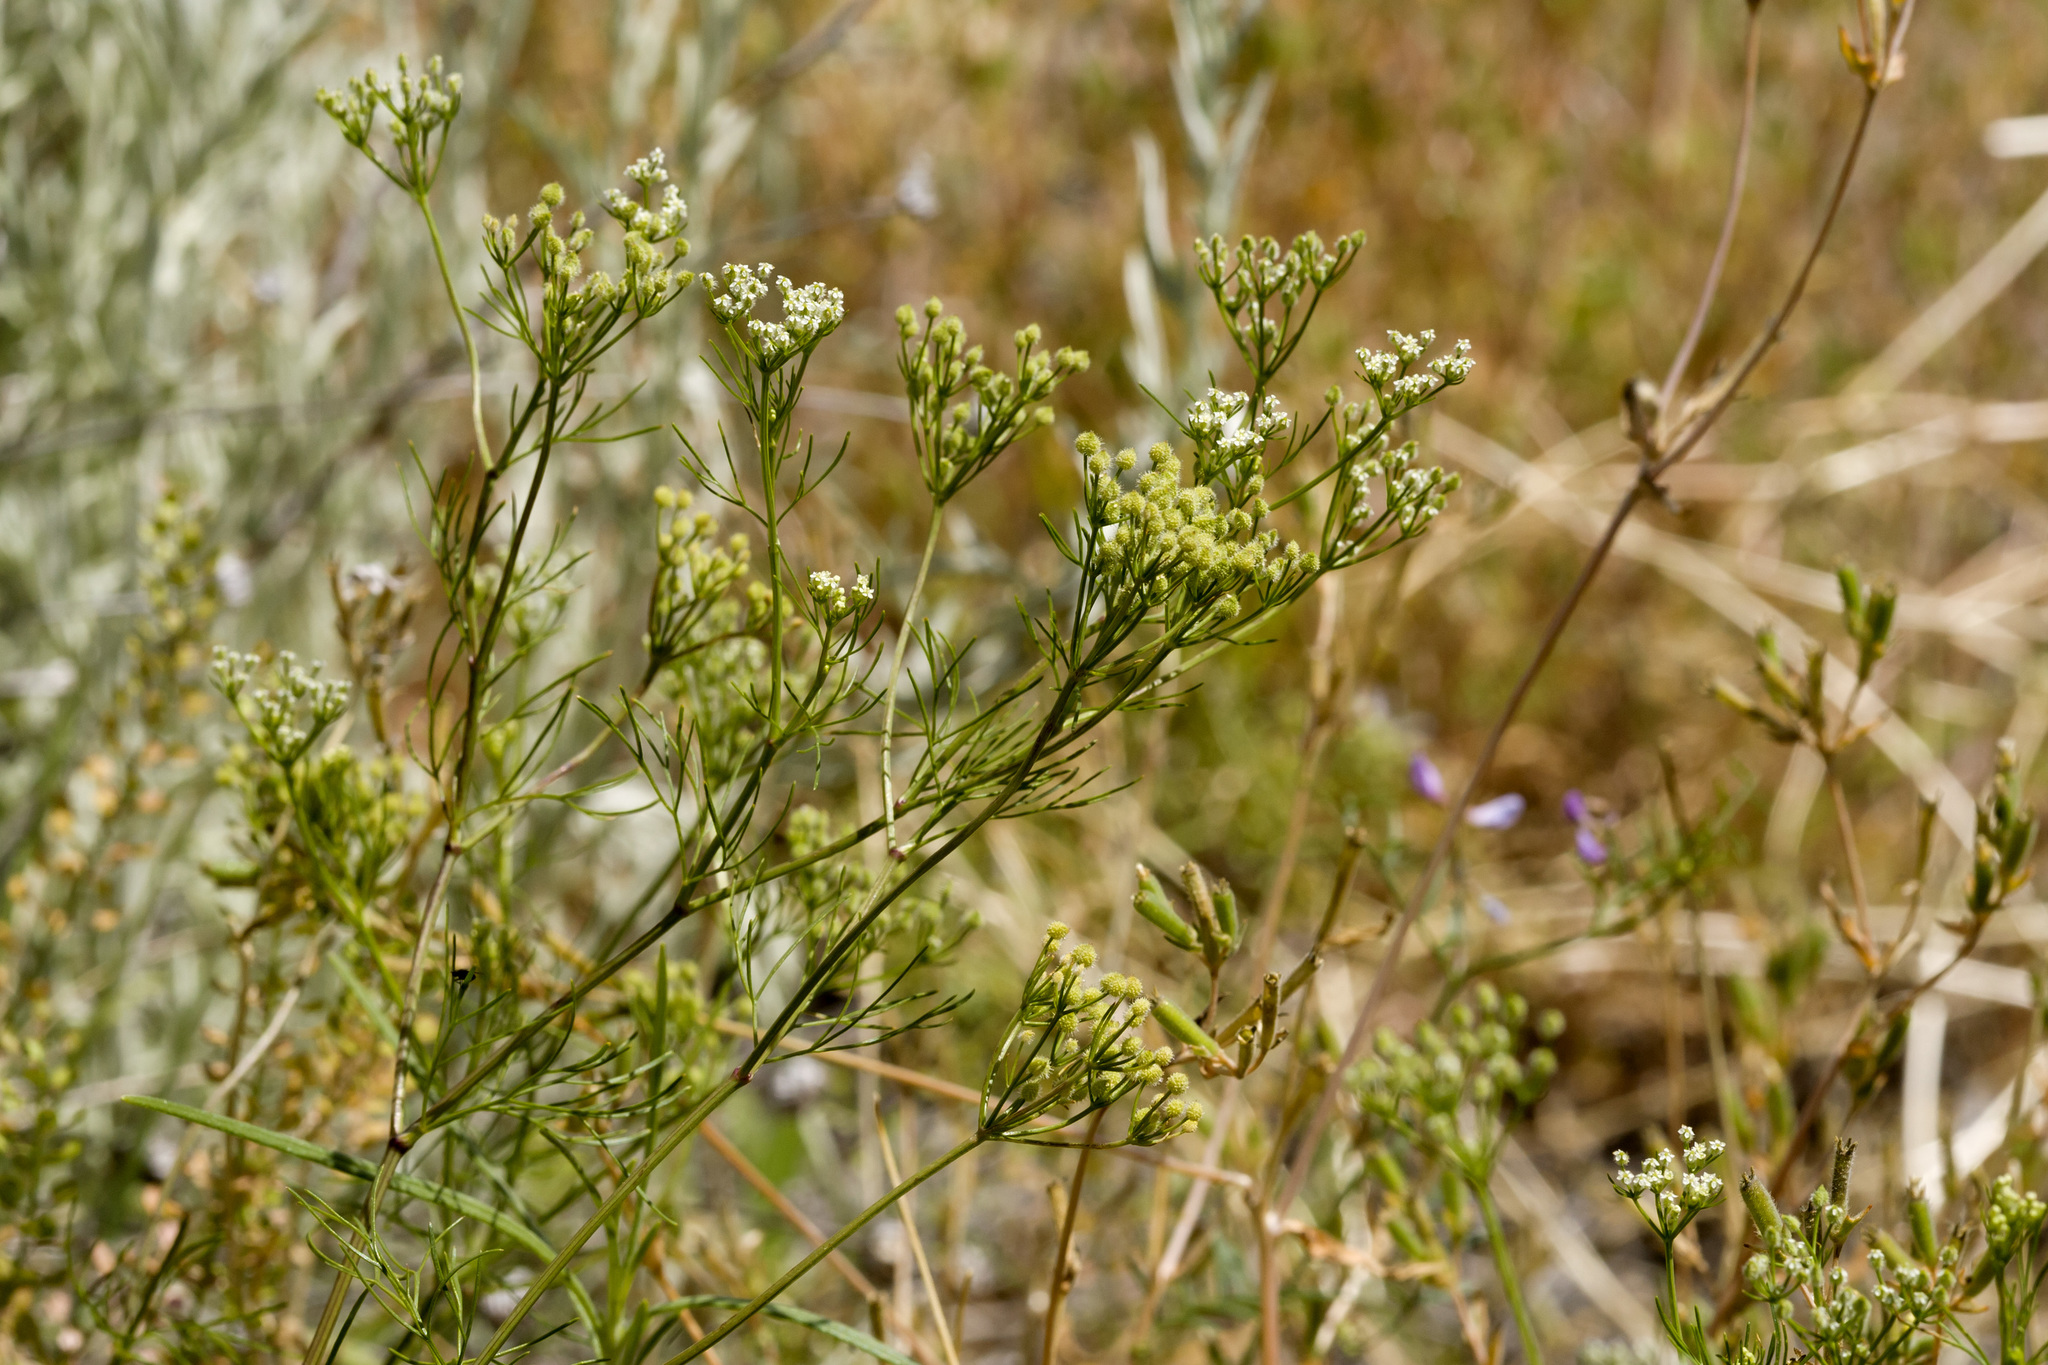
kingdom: Plantae
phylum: Tracheophyta
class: Magnoliopsida
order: Apiales
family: Apiaceae
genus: Spermolepis
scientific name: Spermolepis echinata
